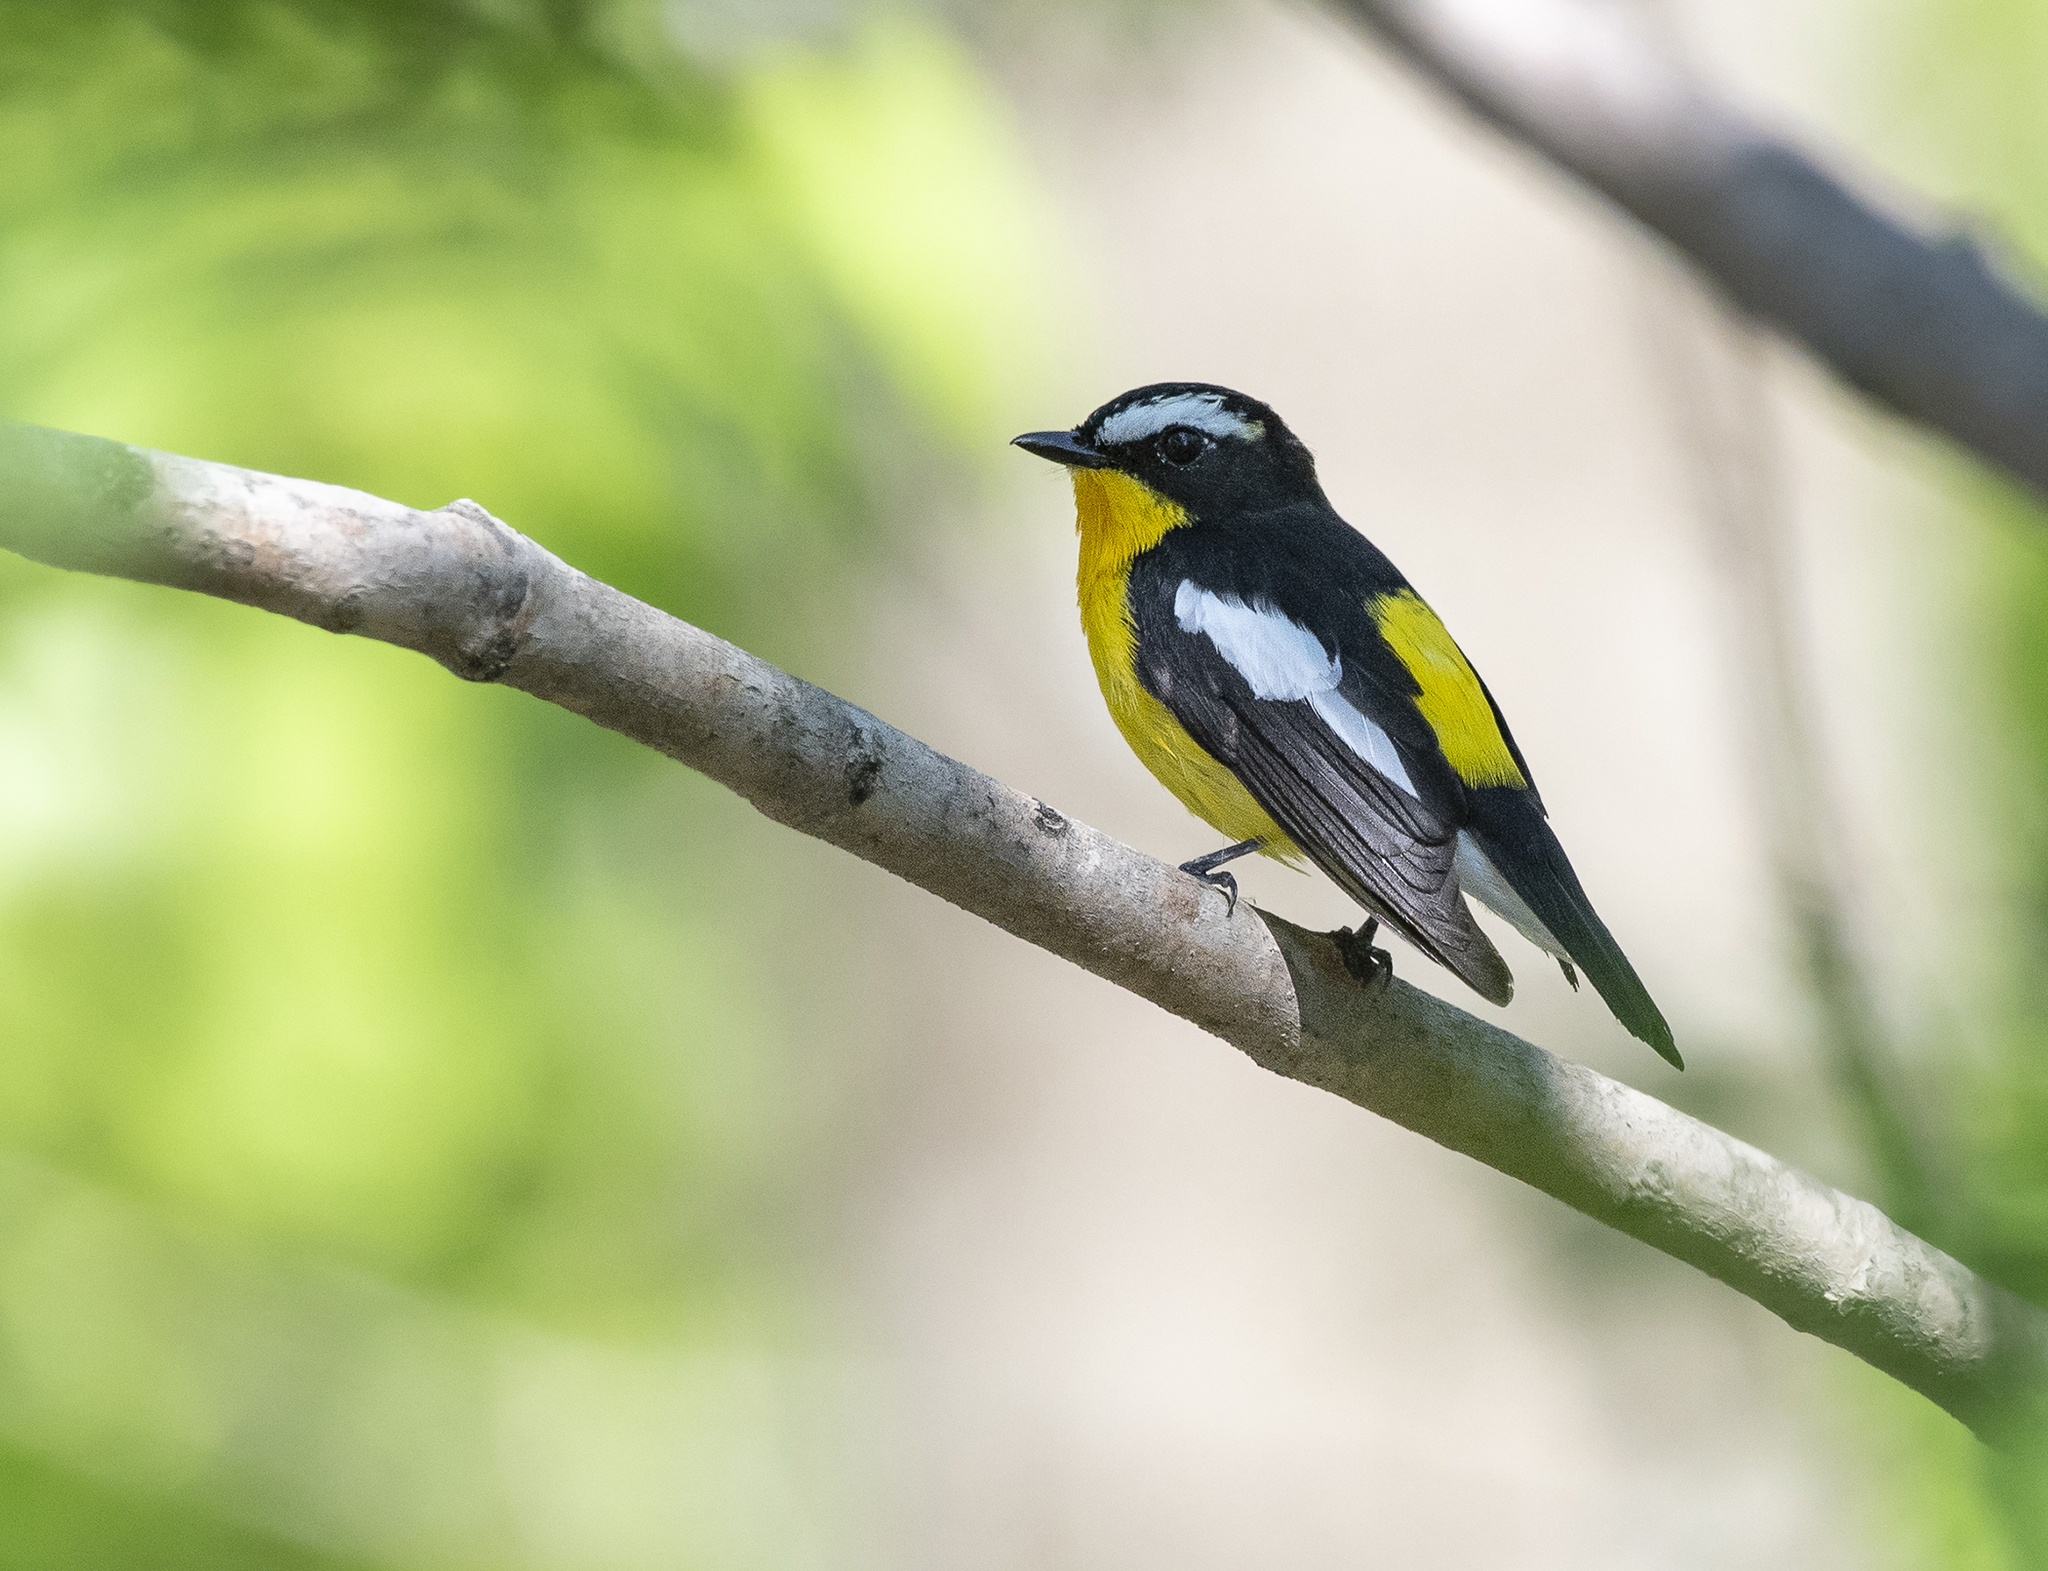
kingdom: Animalia
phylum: Chordata
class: Aves
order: Passeriformes
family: Muscicapidae
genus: Ficedula
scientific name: Ficedula zanthopygia
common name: Yellow-rumped flycatcher
